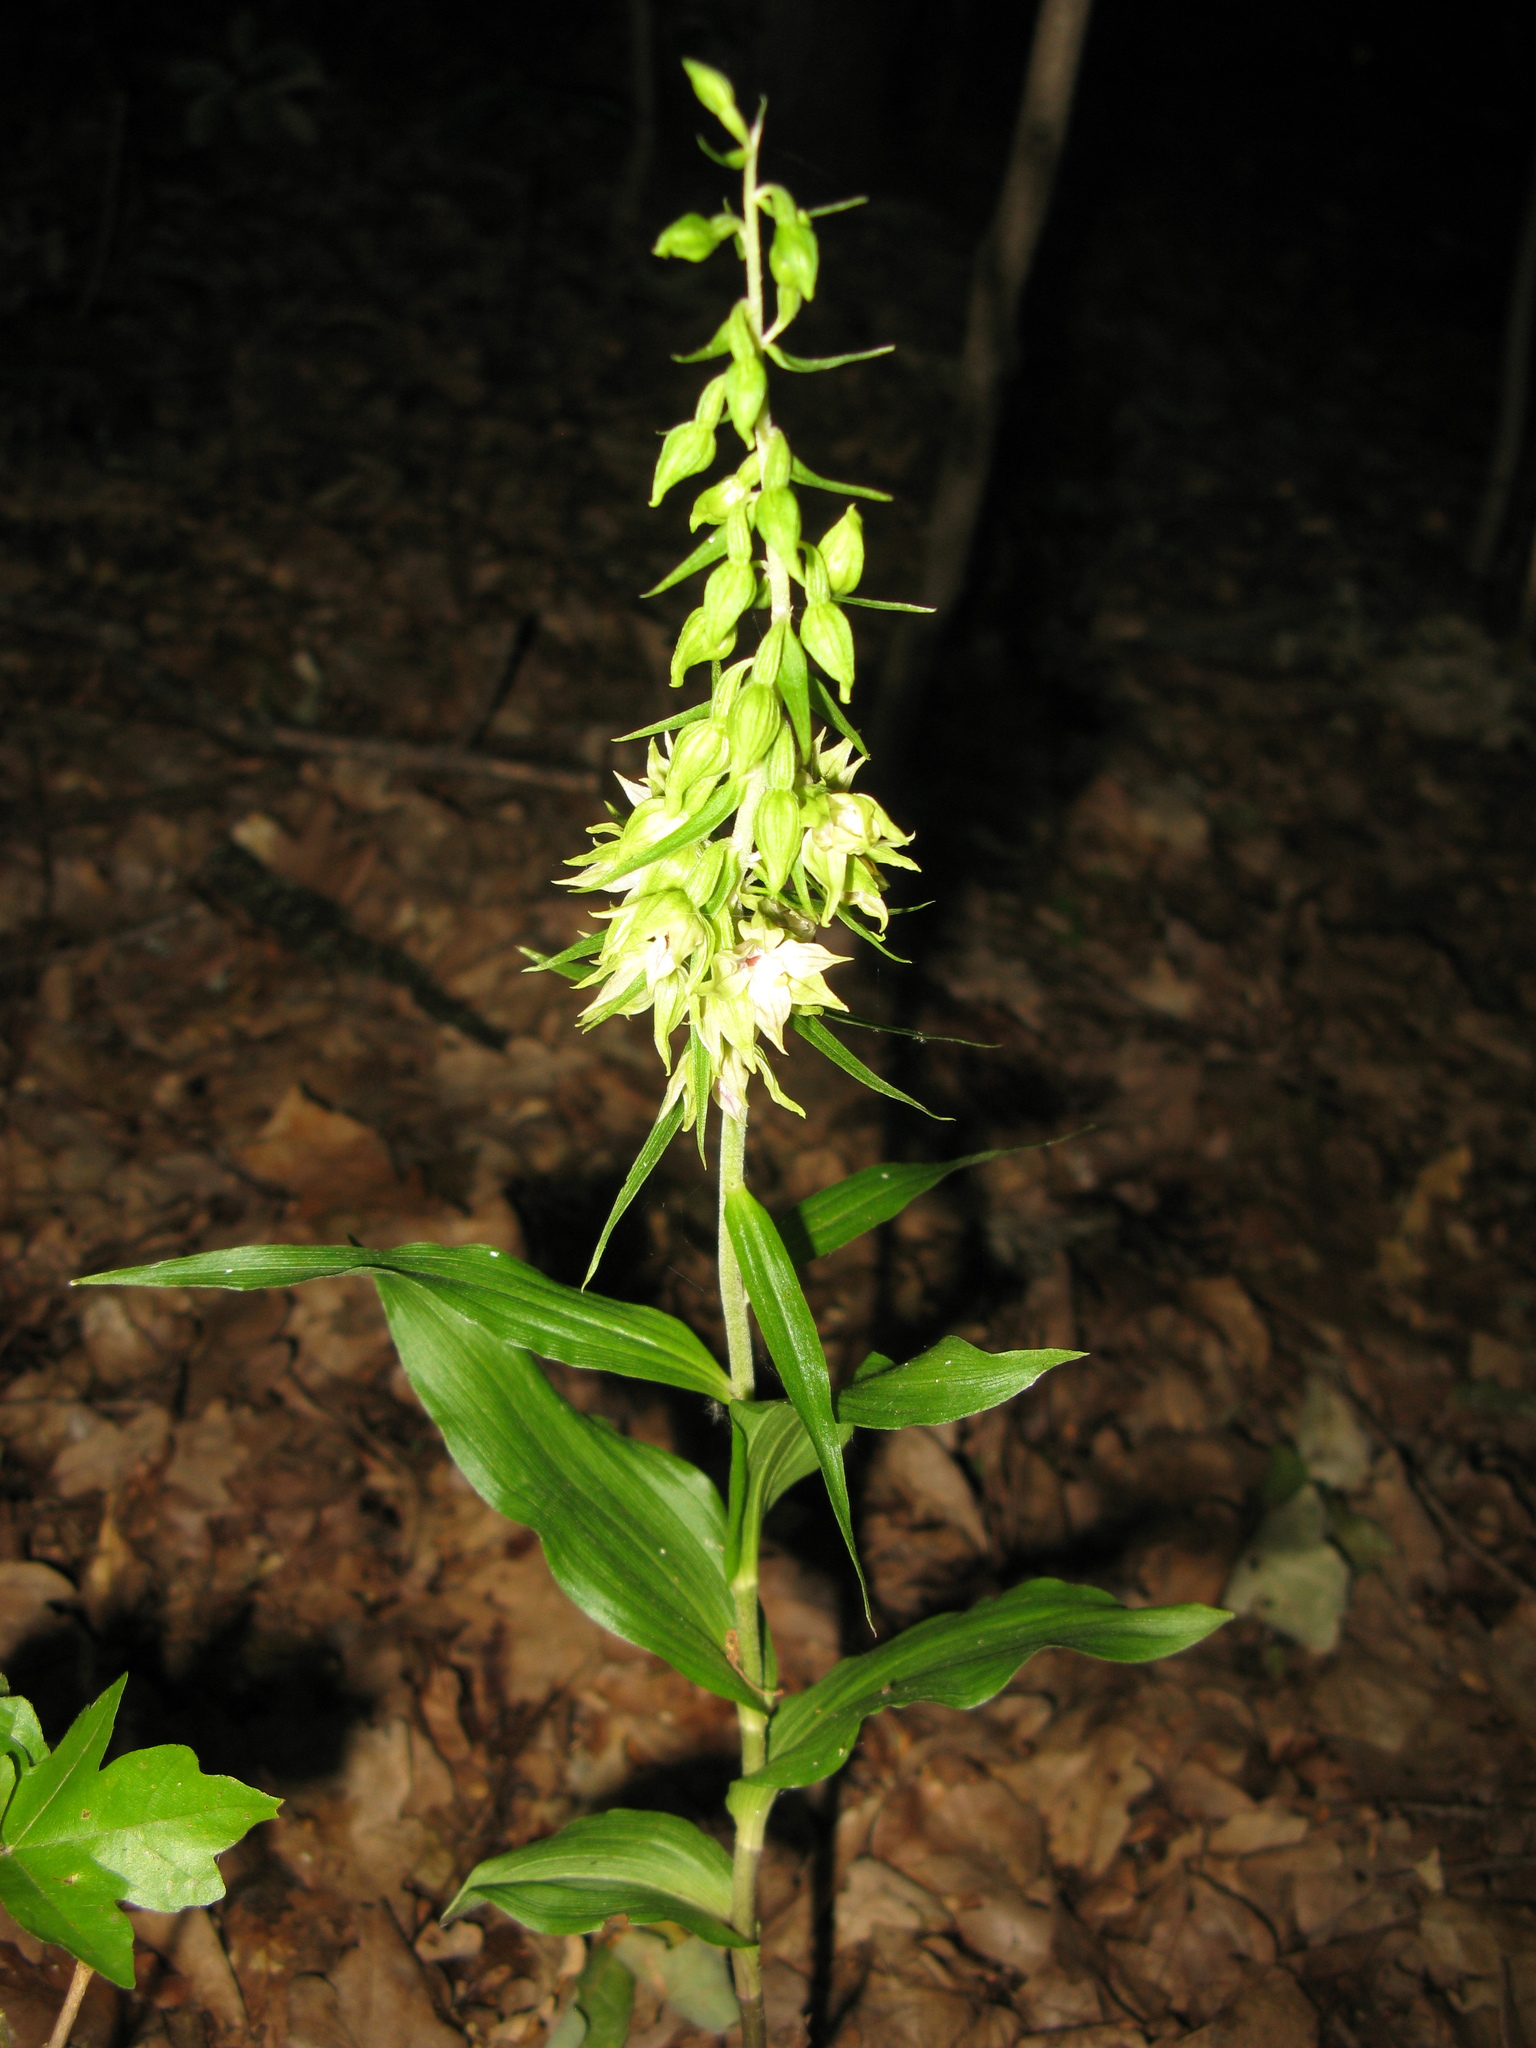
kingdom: Plantae
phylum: Tracheophyta
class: Liliopsida
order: Asparagales
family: Orchidaceae
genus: Epipactis
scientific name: Epipactis helleborine
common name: Broad-leaved helleborine
